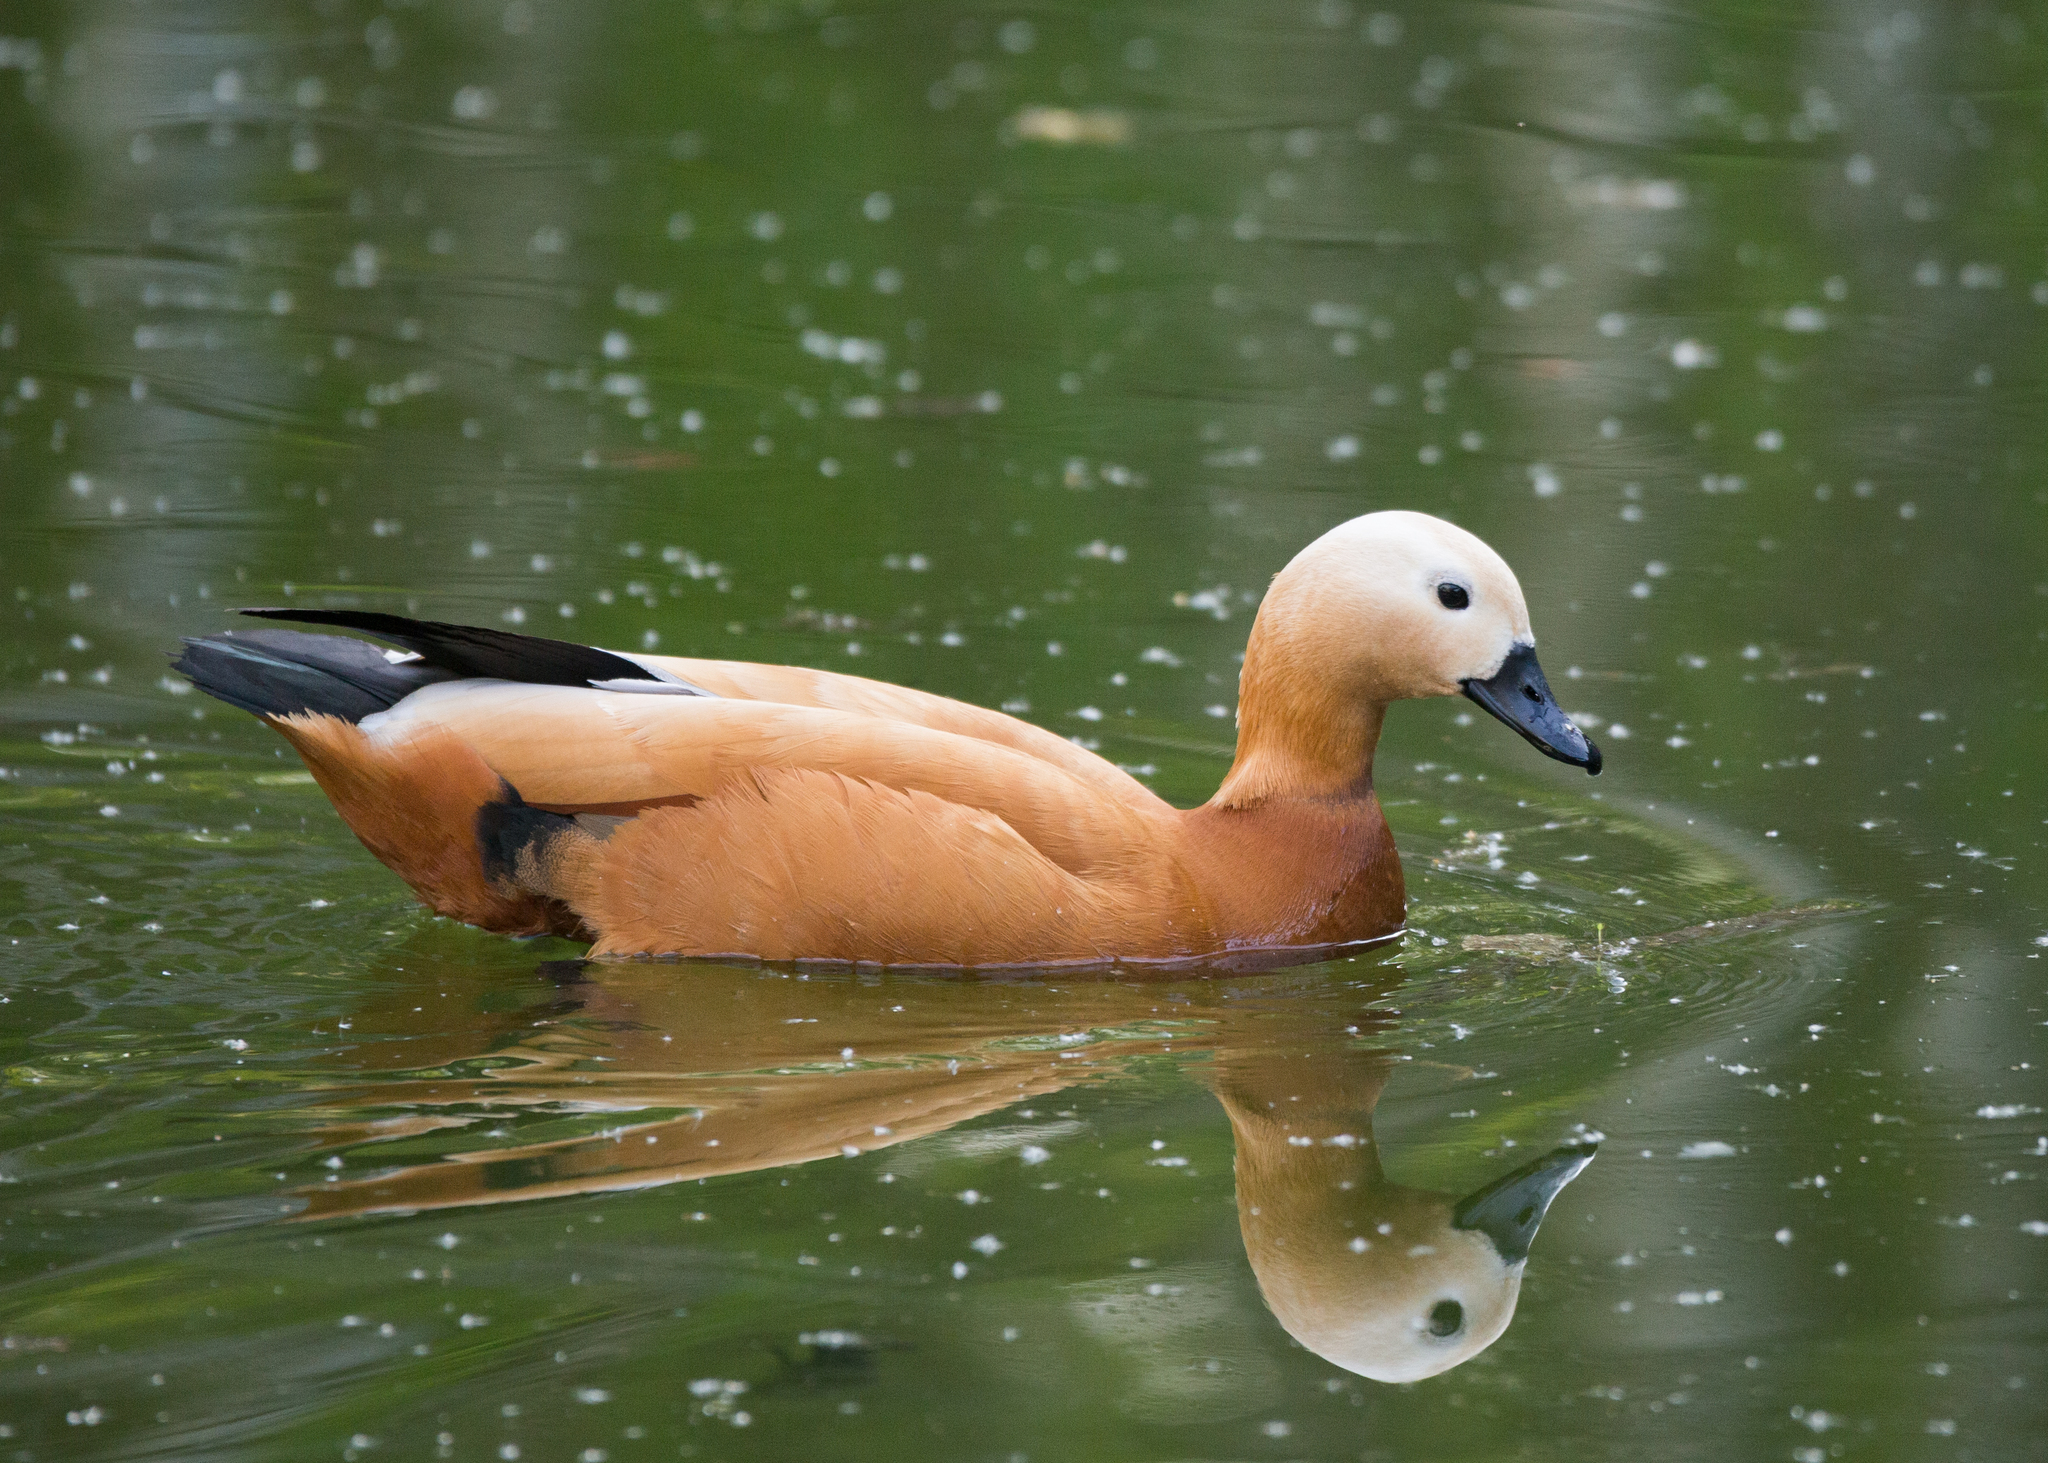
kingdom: Animalia
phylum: Chordata
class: Aves
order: Anseriformes
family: Anatidae
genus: Tadorna
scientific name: Tadorna ferruginea
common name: Ruddy shelduck
